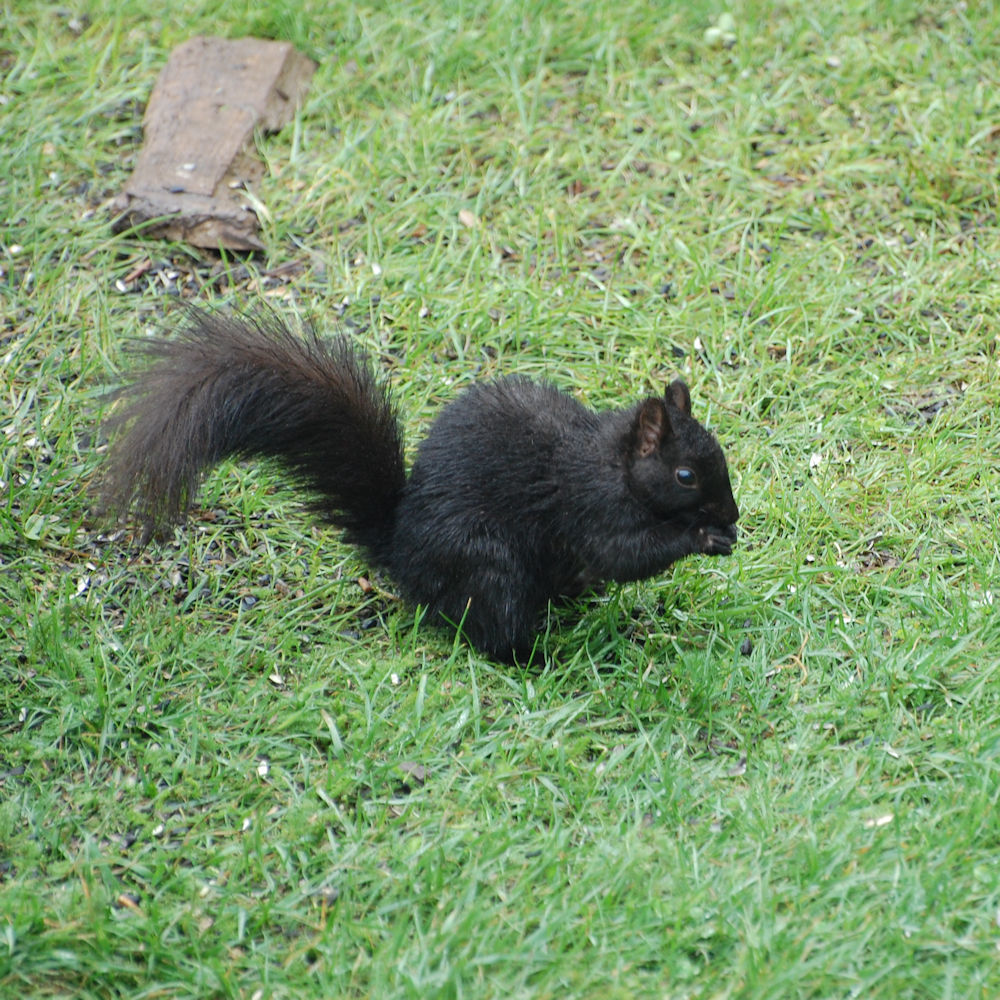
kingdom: Animalia
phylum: Chordata
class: Mammalia
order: Rodentia
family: Sciuridae
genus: Sciurus
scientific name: Sciurus carolinensis
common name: Eastern gray squirrel
